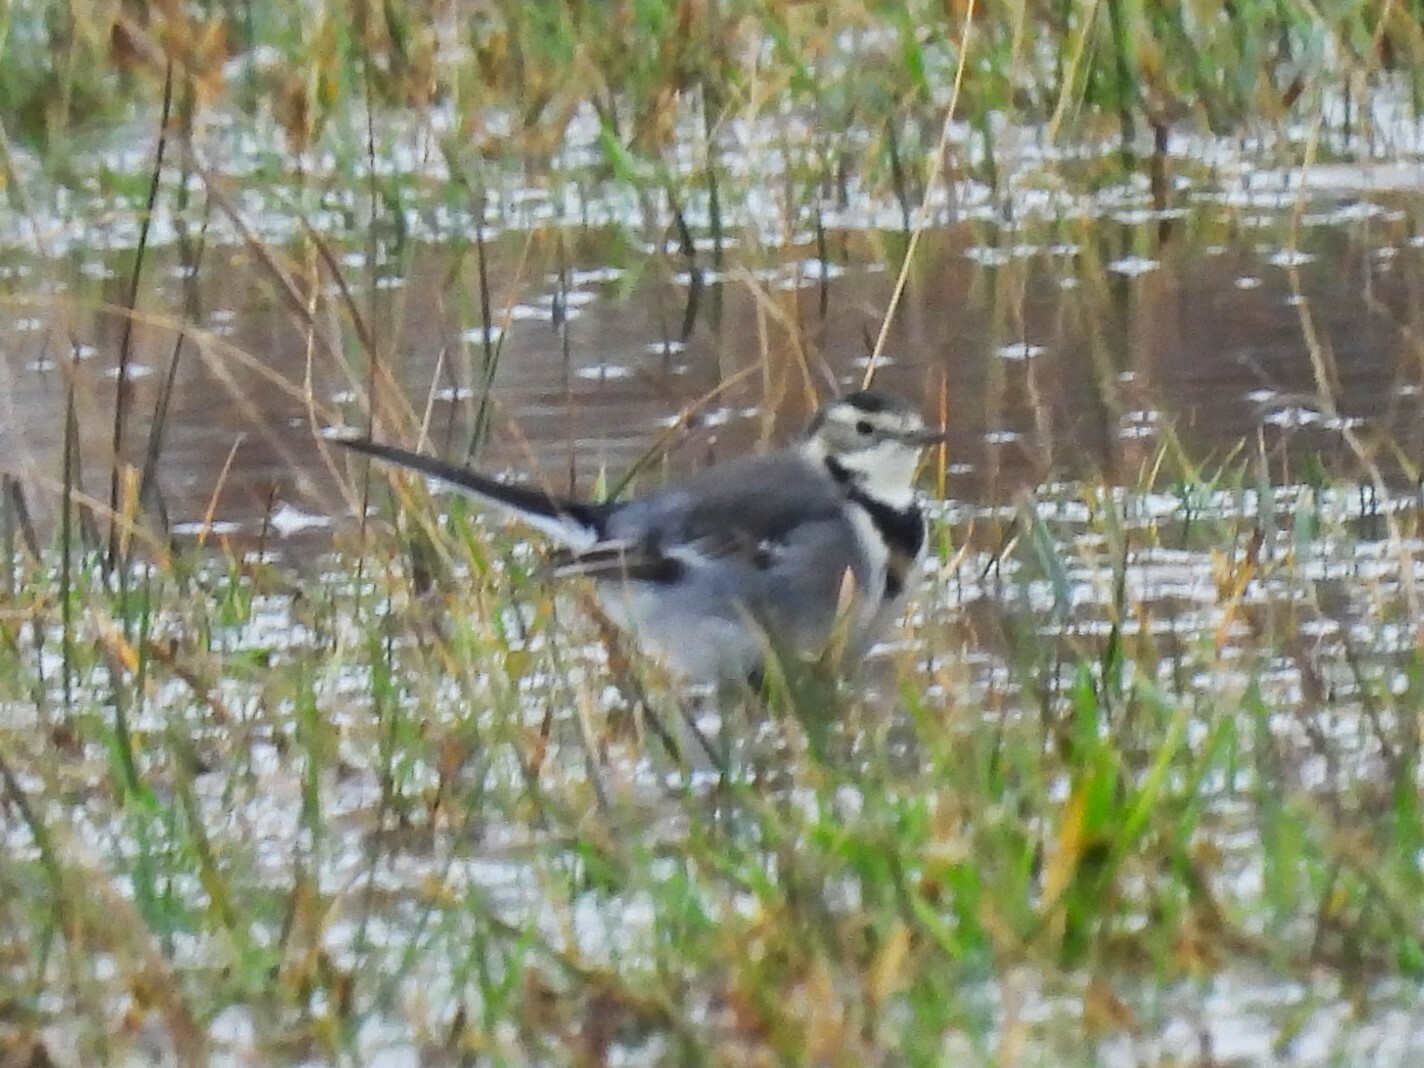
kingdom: Animalia
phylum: Chordata
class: Aves
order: Passeriformes
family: Motacillidae
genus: Motacilla
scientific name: Motacilla alba
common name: White wagtail
